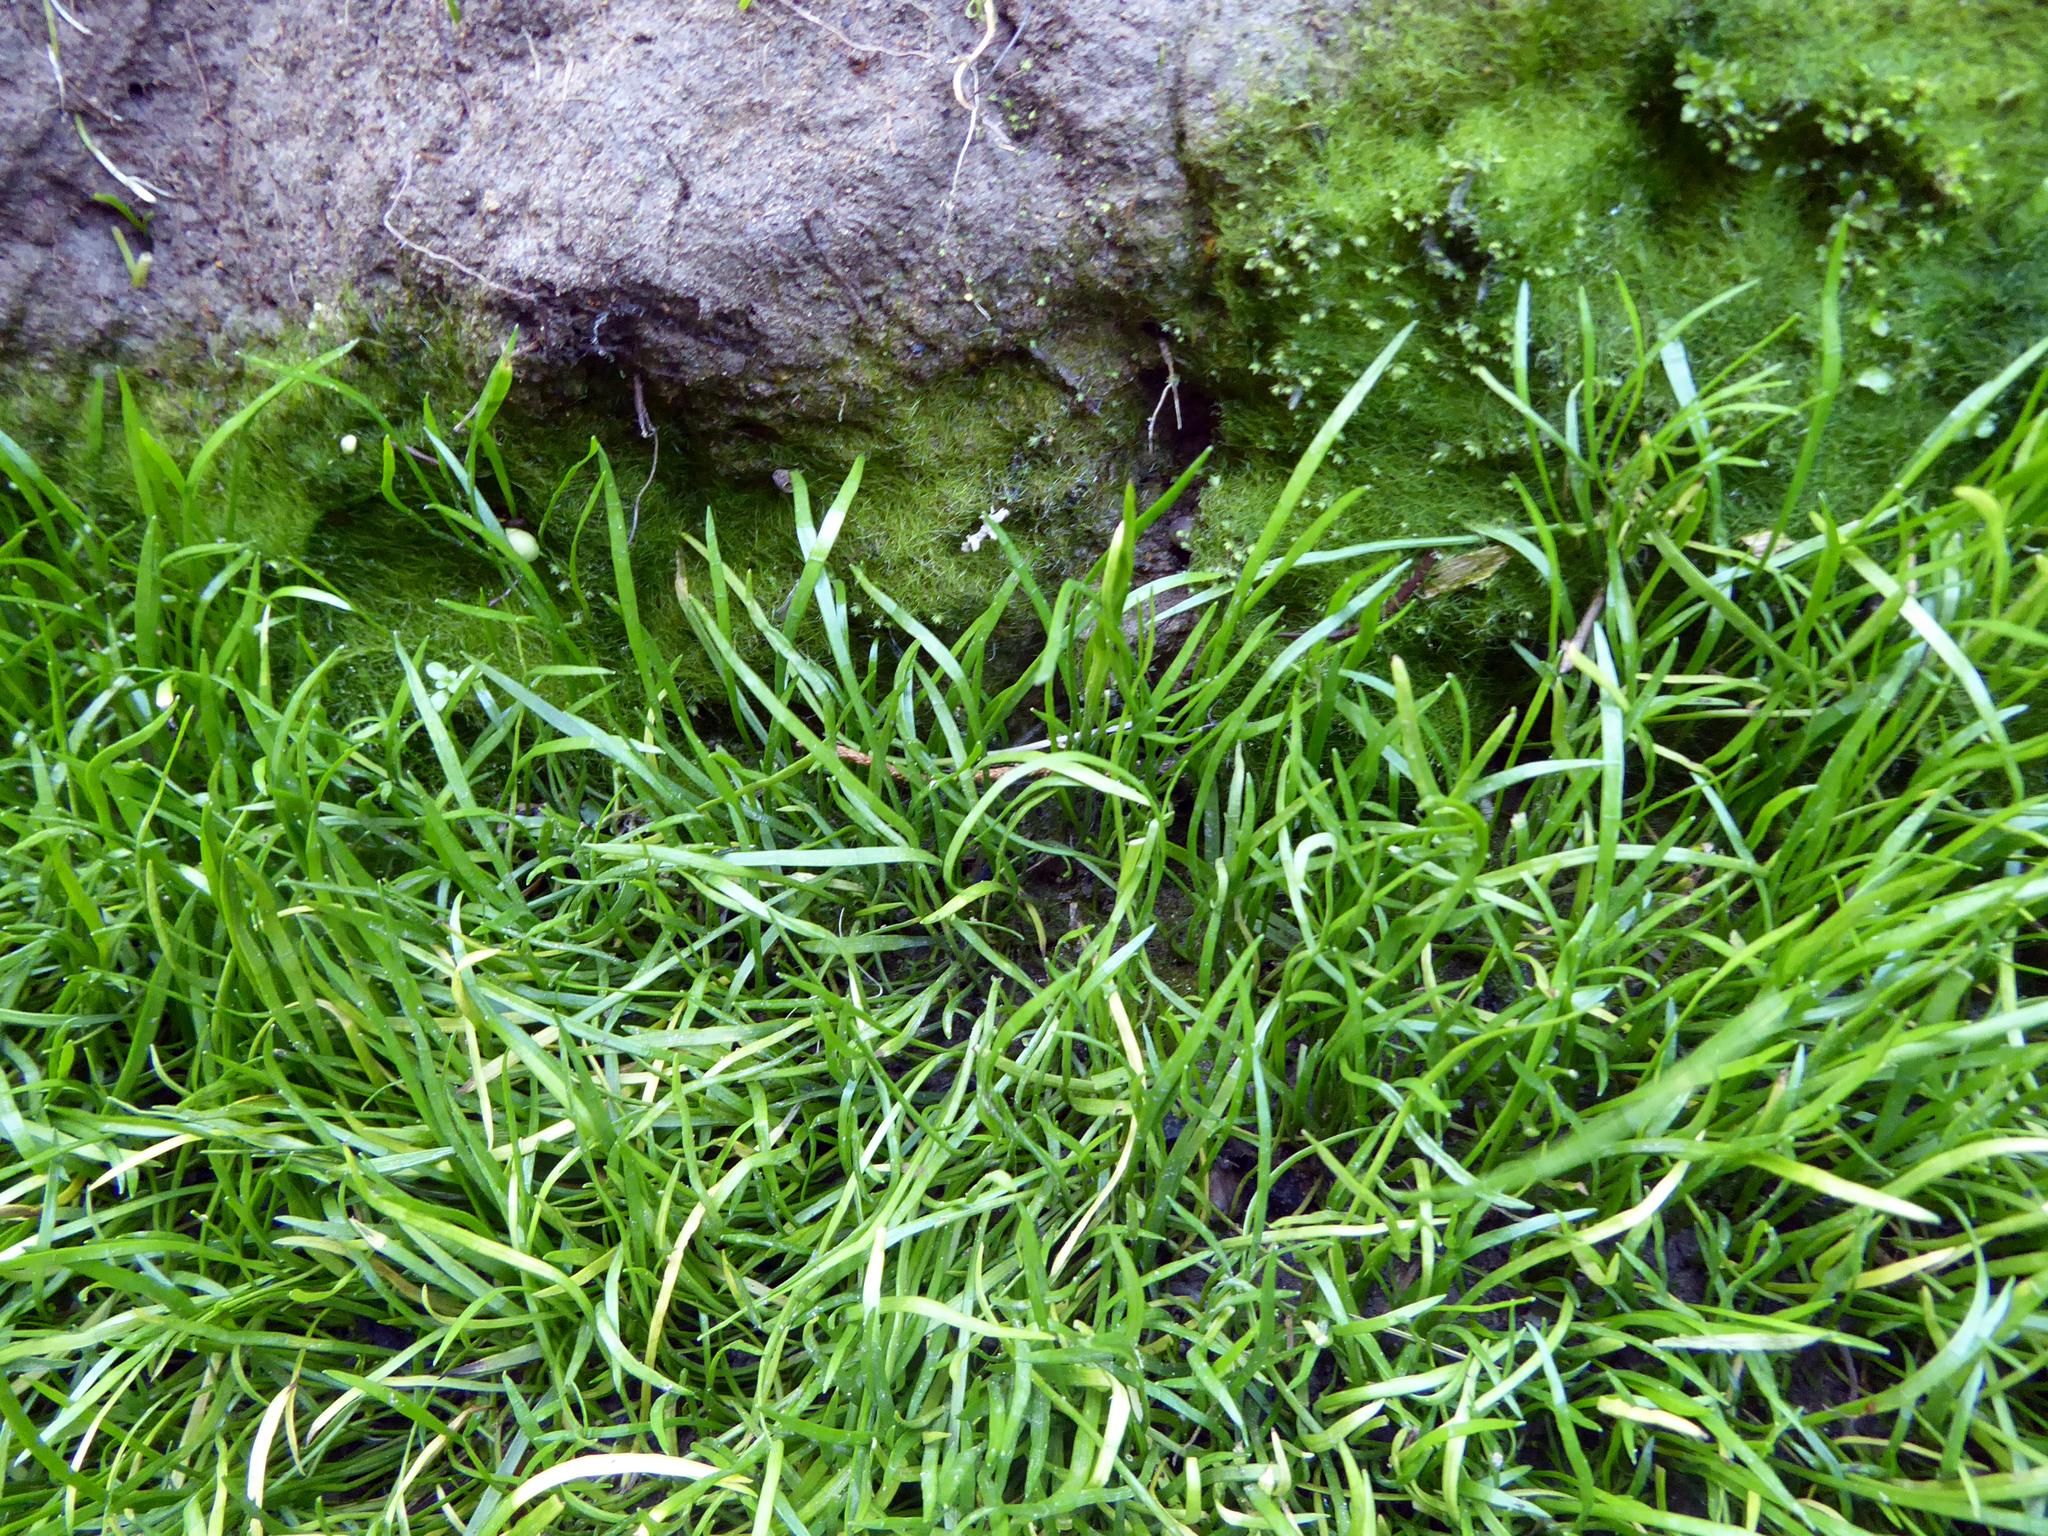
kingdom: Plantae
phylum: Tracheophyta
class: Magnoliopsida
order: Apiales
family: Apiaceae
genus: Lilaeopsis
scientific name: Lilaeopsis minor
